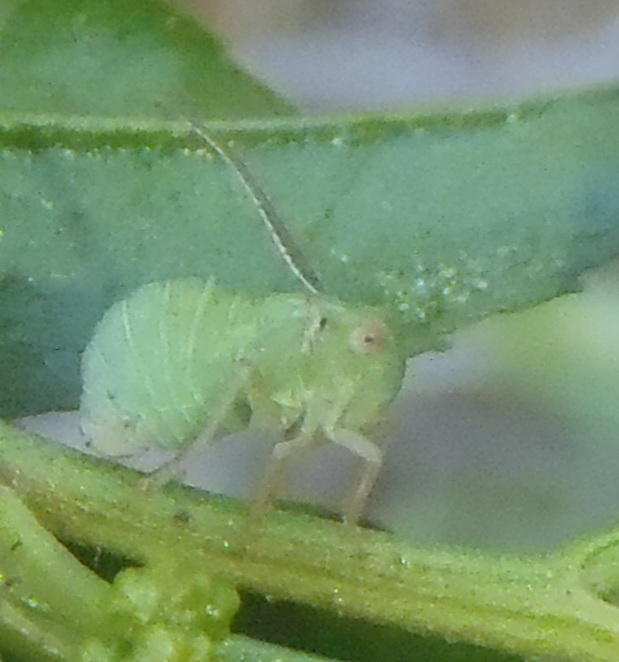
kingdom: Animalia
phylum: Arthropoda
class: Insecta
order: Hemiptera
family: Tropiduchidae
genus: Johannesburgia
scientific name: Johannesburgia rossi
